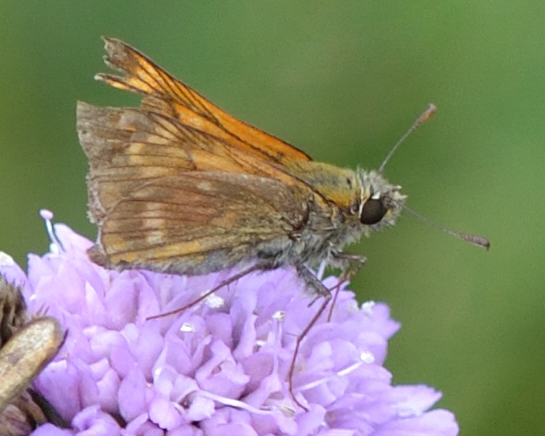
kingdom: Animalia
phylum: Arthropoda
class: Insecta
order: Lepidoptera
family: Hesperiidae
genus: Ochlodes
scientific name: Ochlodes venata
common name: Large skipper
